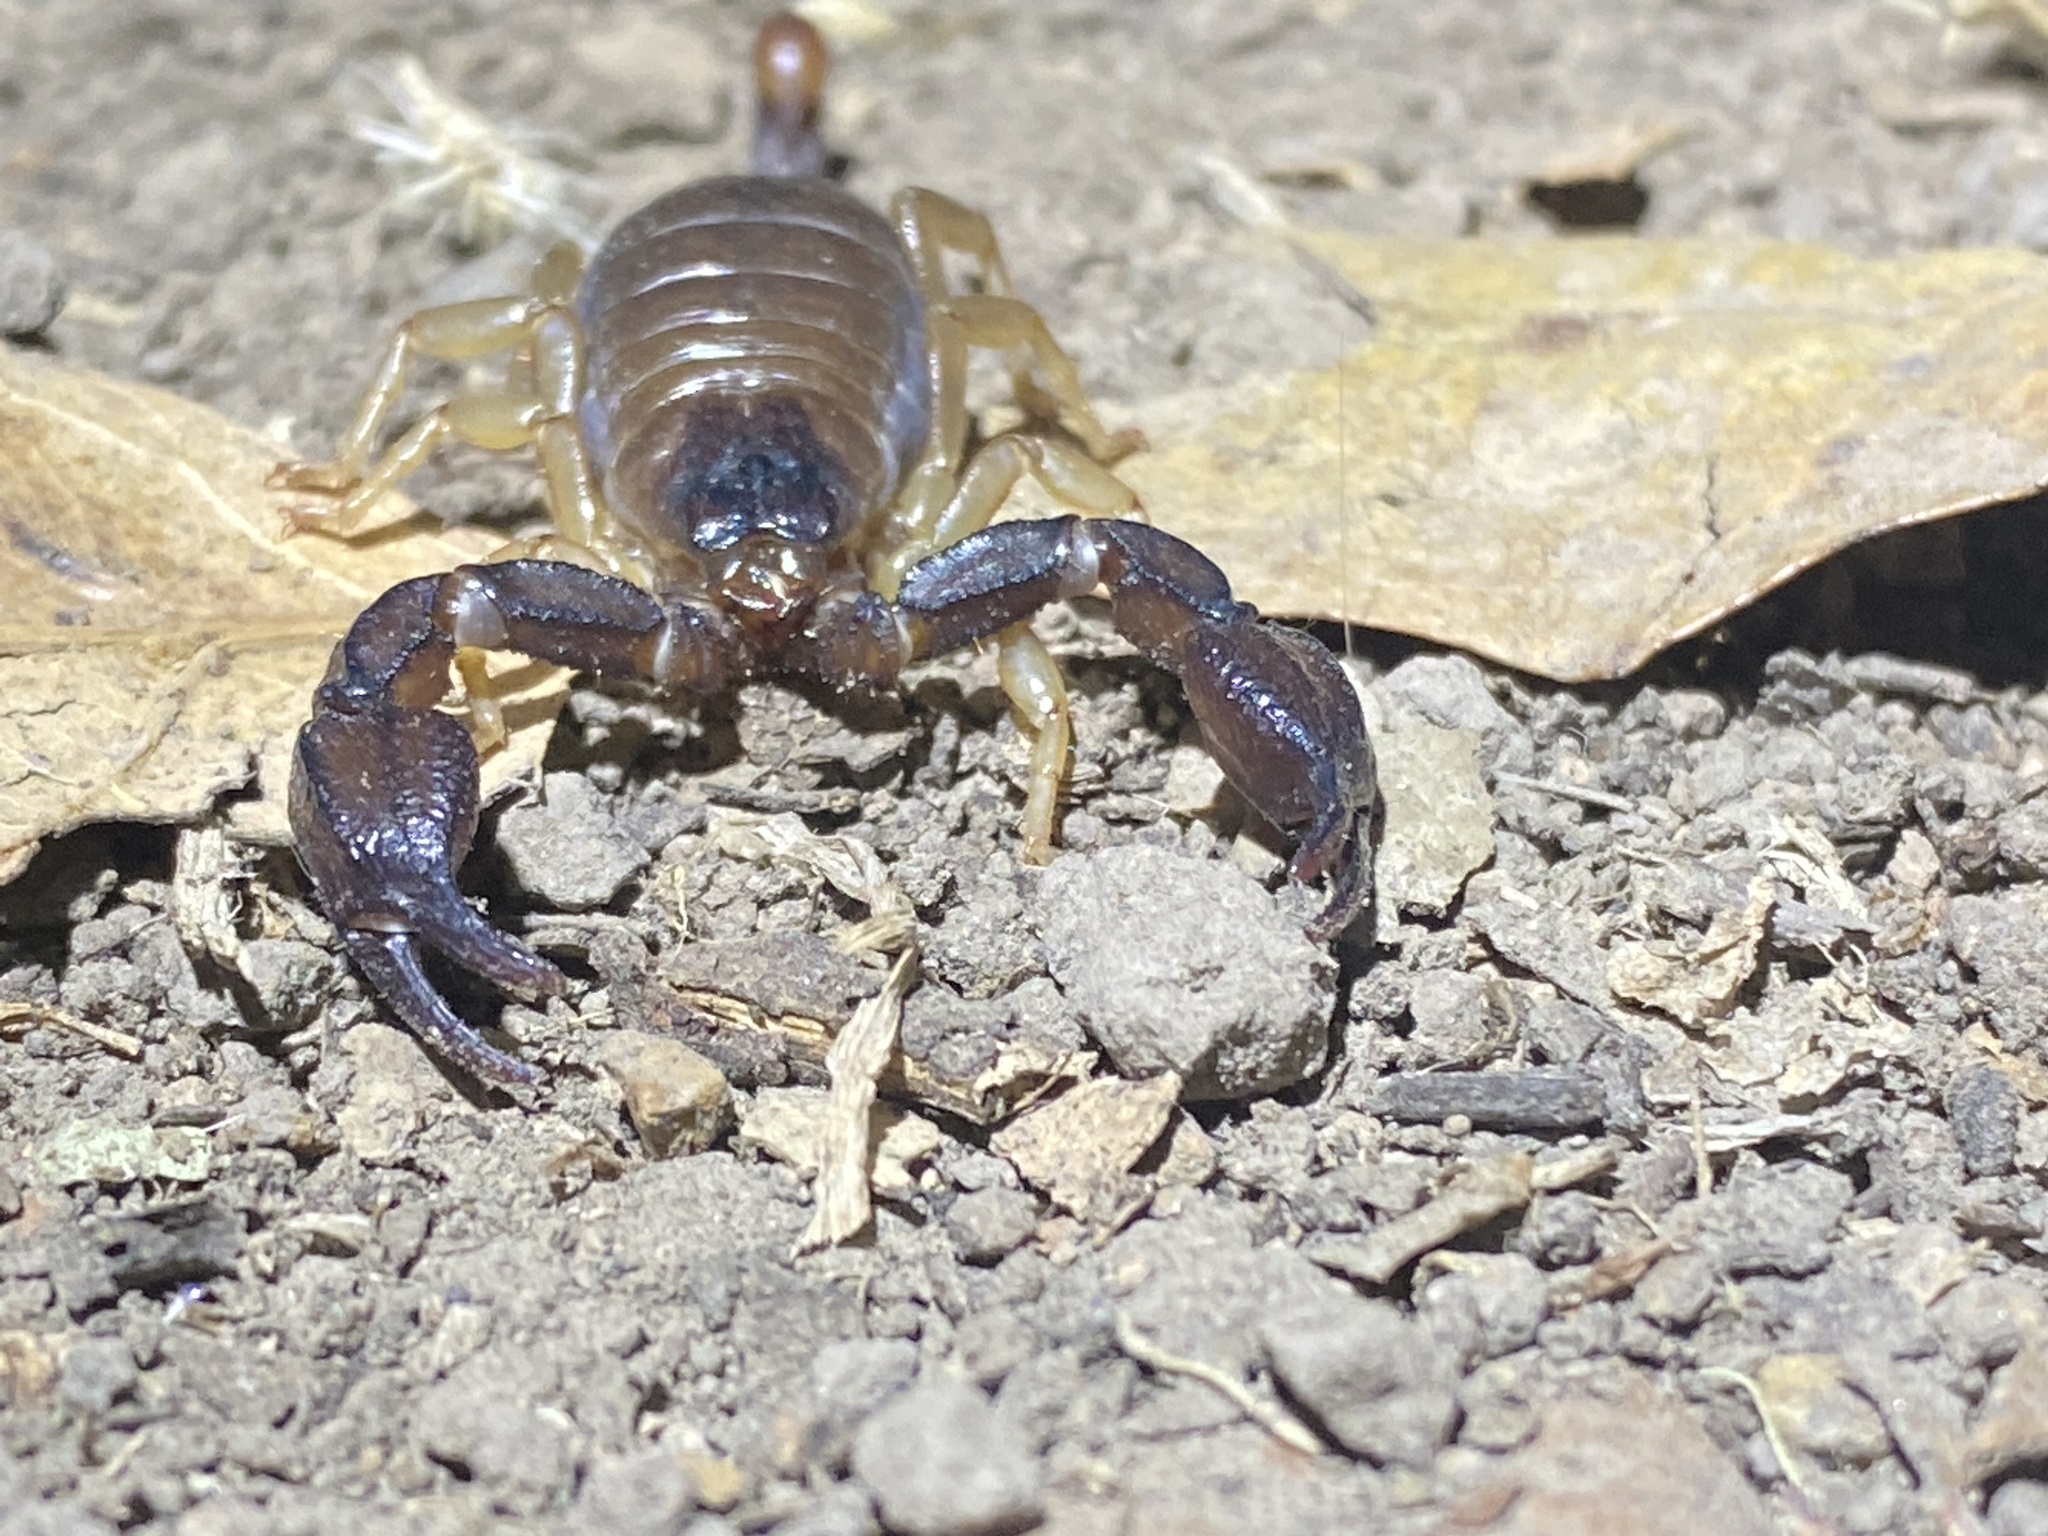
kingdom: Animalia
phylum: Arthropoda
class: Arachnida
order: Scorpiones
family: Chactidae
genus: Uroctonus
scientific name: Uroctonus mordax
